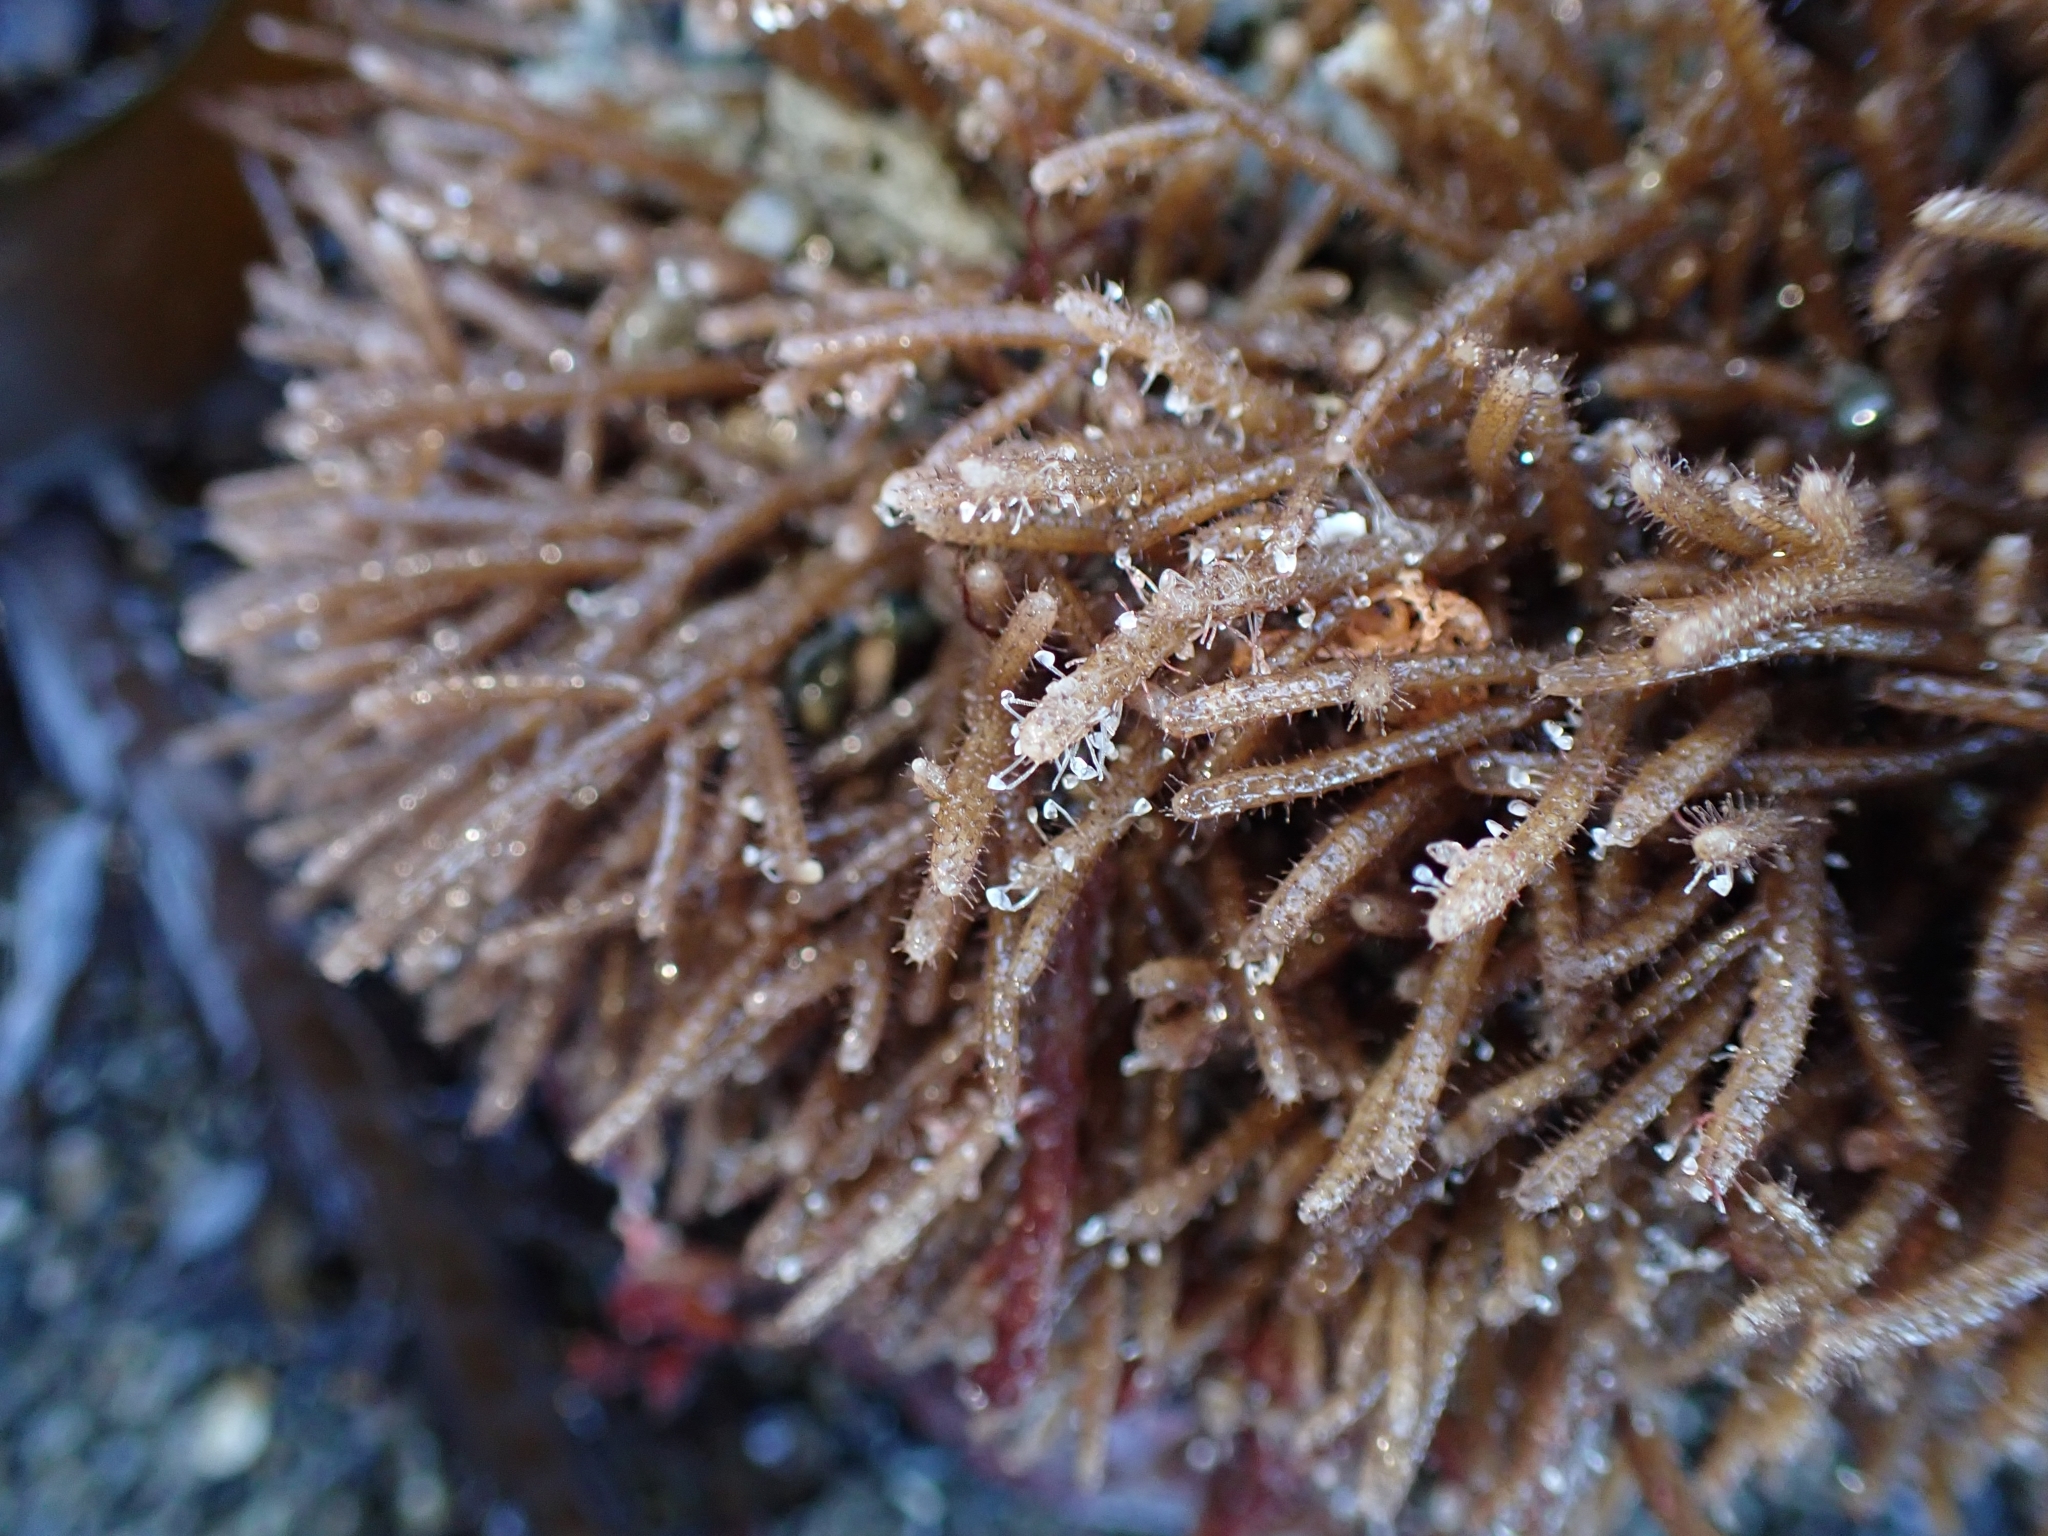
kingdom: Animalia
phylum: Bryozoa
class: Gymnolaemata
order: Ctenostomatida
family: Flustrellidridae
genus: Elzerina
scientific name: Elzerina binderi
